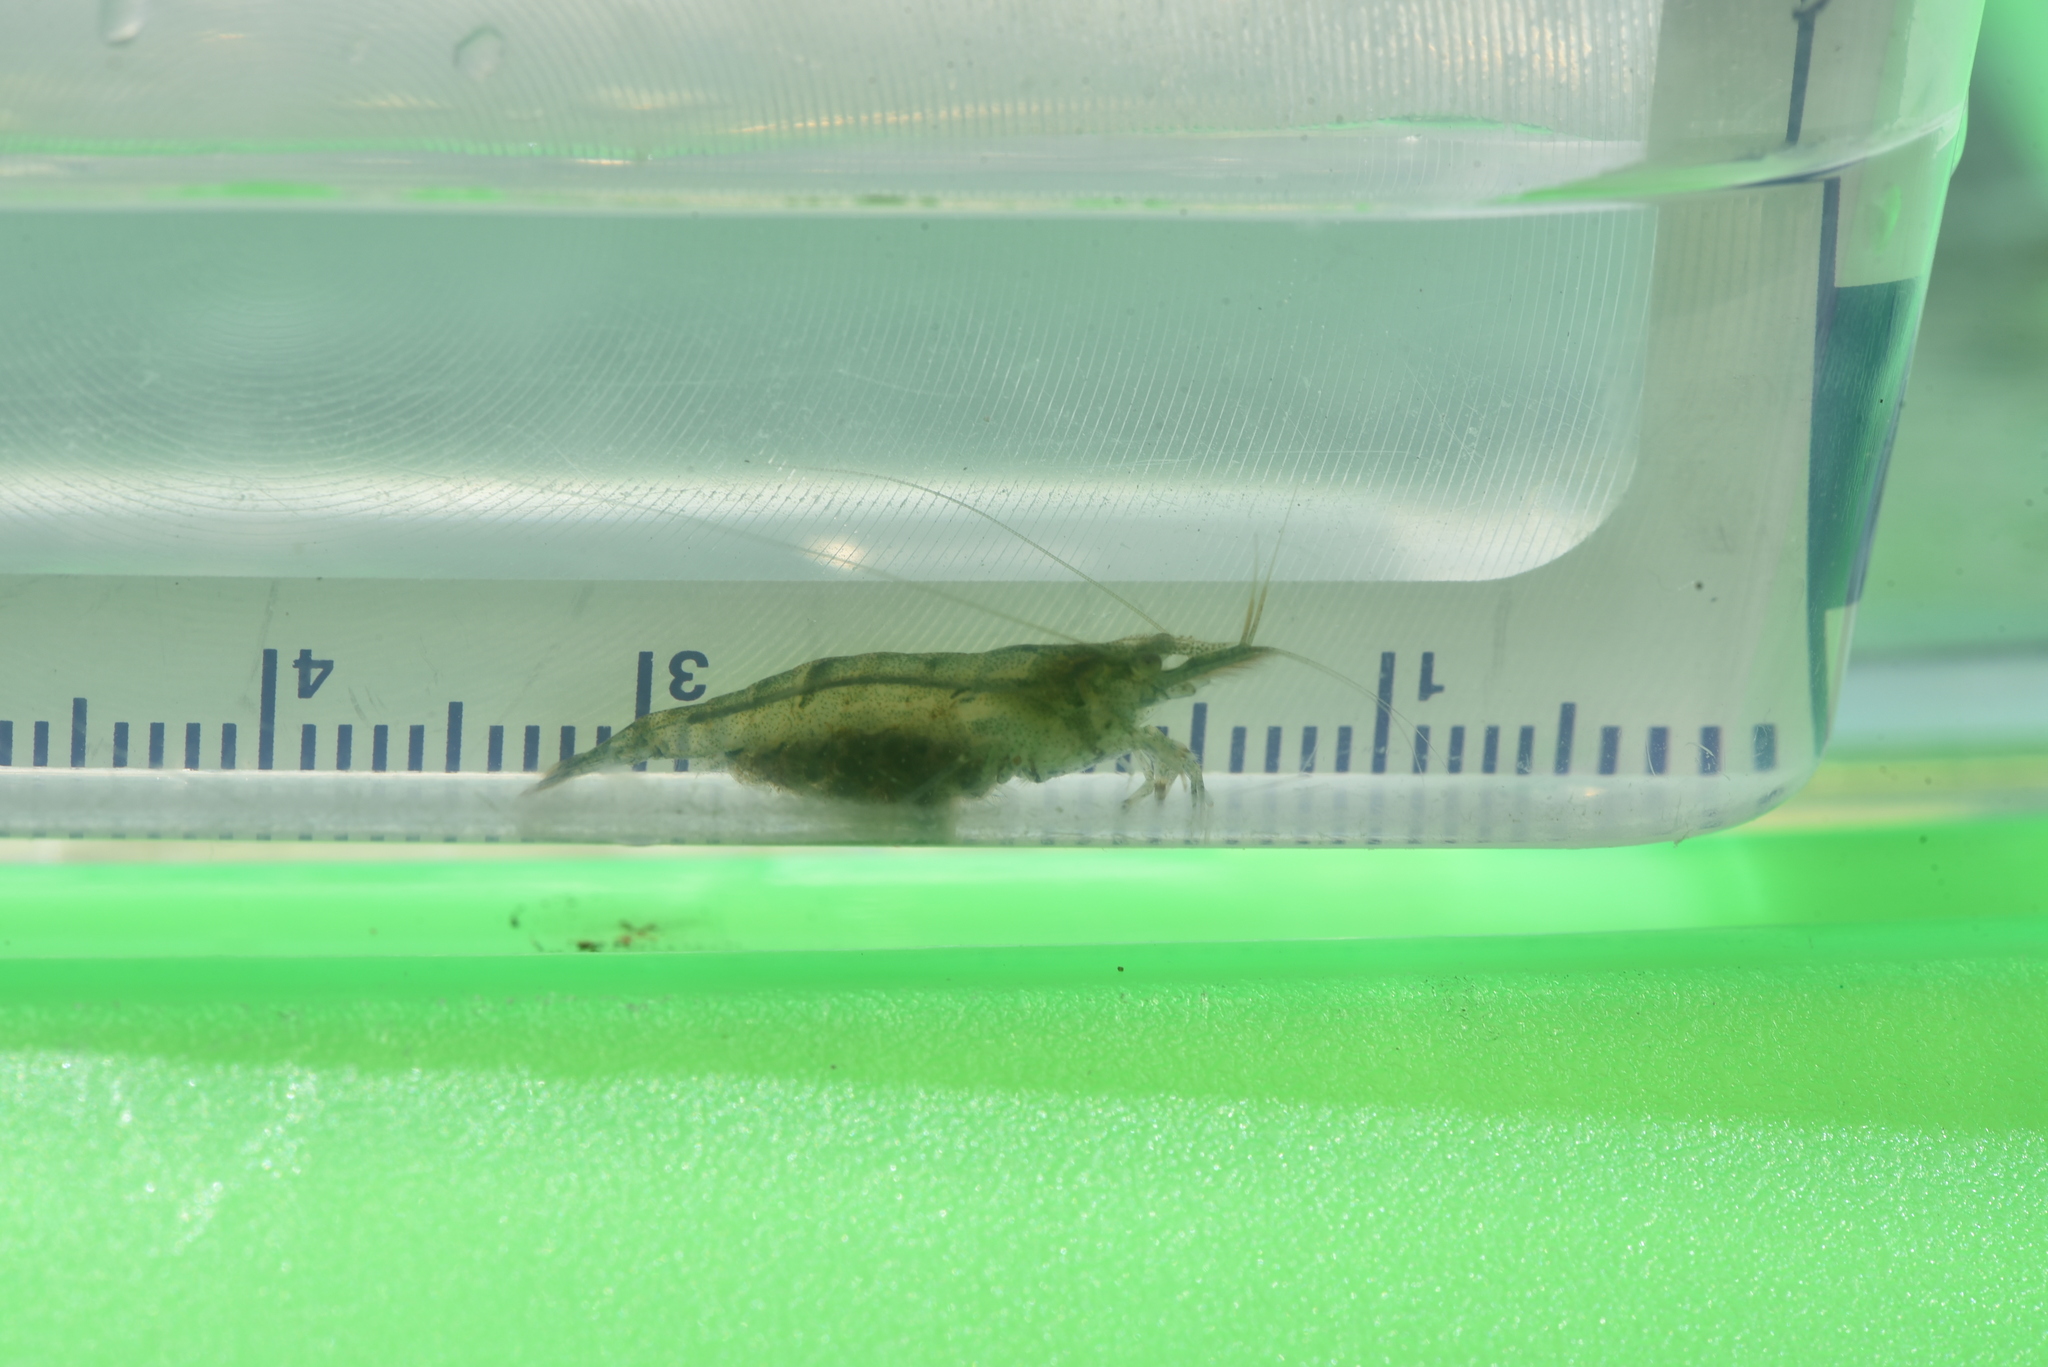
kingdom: Animalia
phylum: Arthropoda
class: Malacostraca
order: Decapoda
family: Atyidae
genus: Neocaridina
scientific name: Neocaridina denticulata
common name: Japanese swamp shrimp
